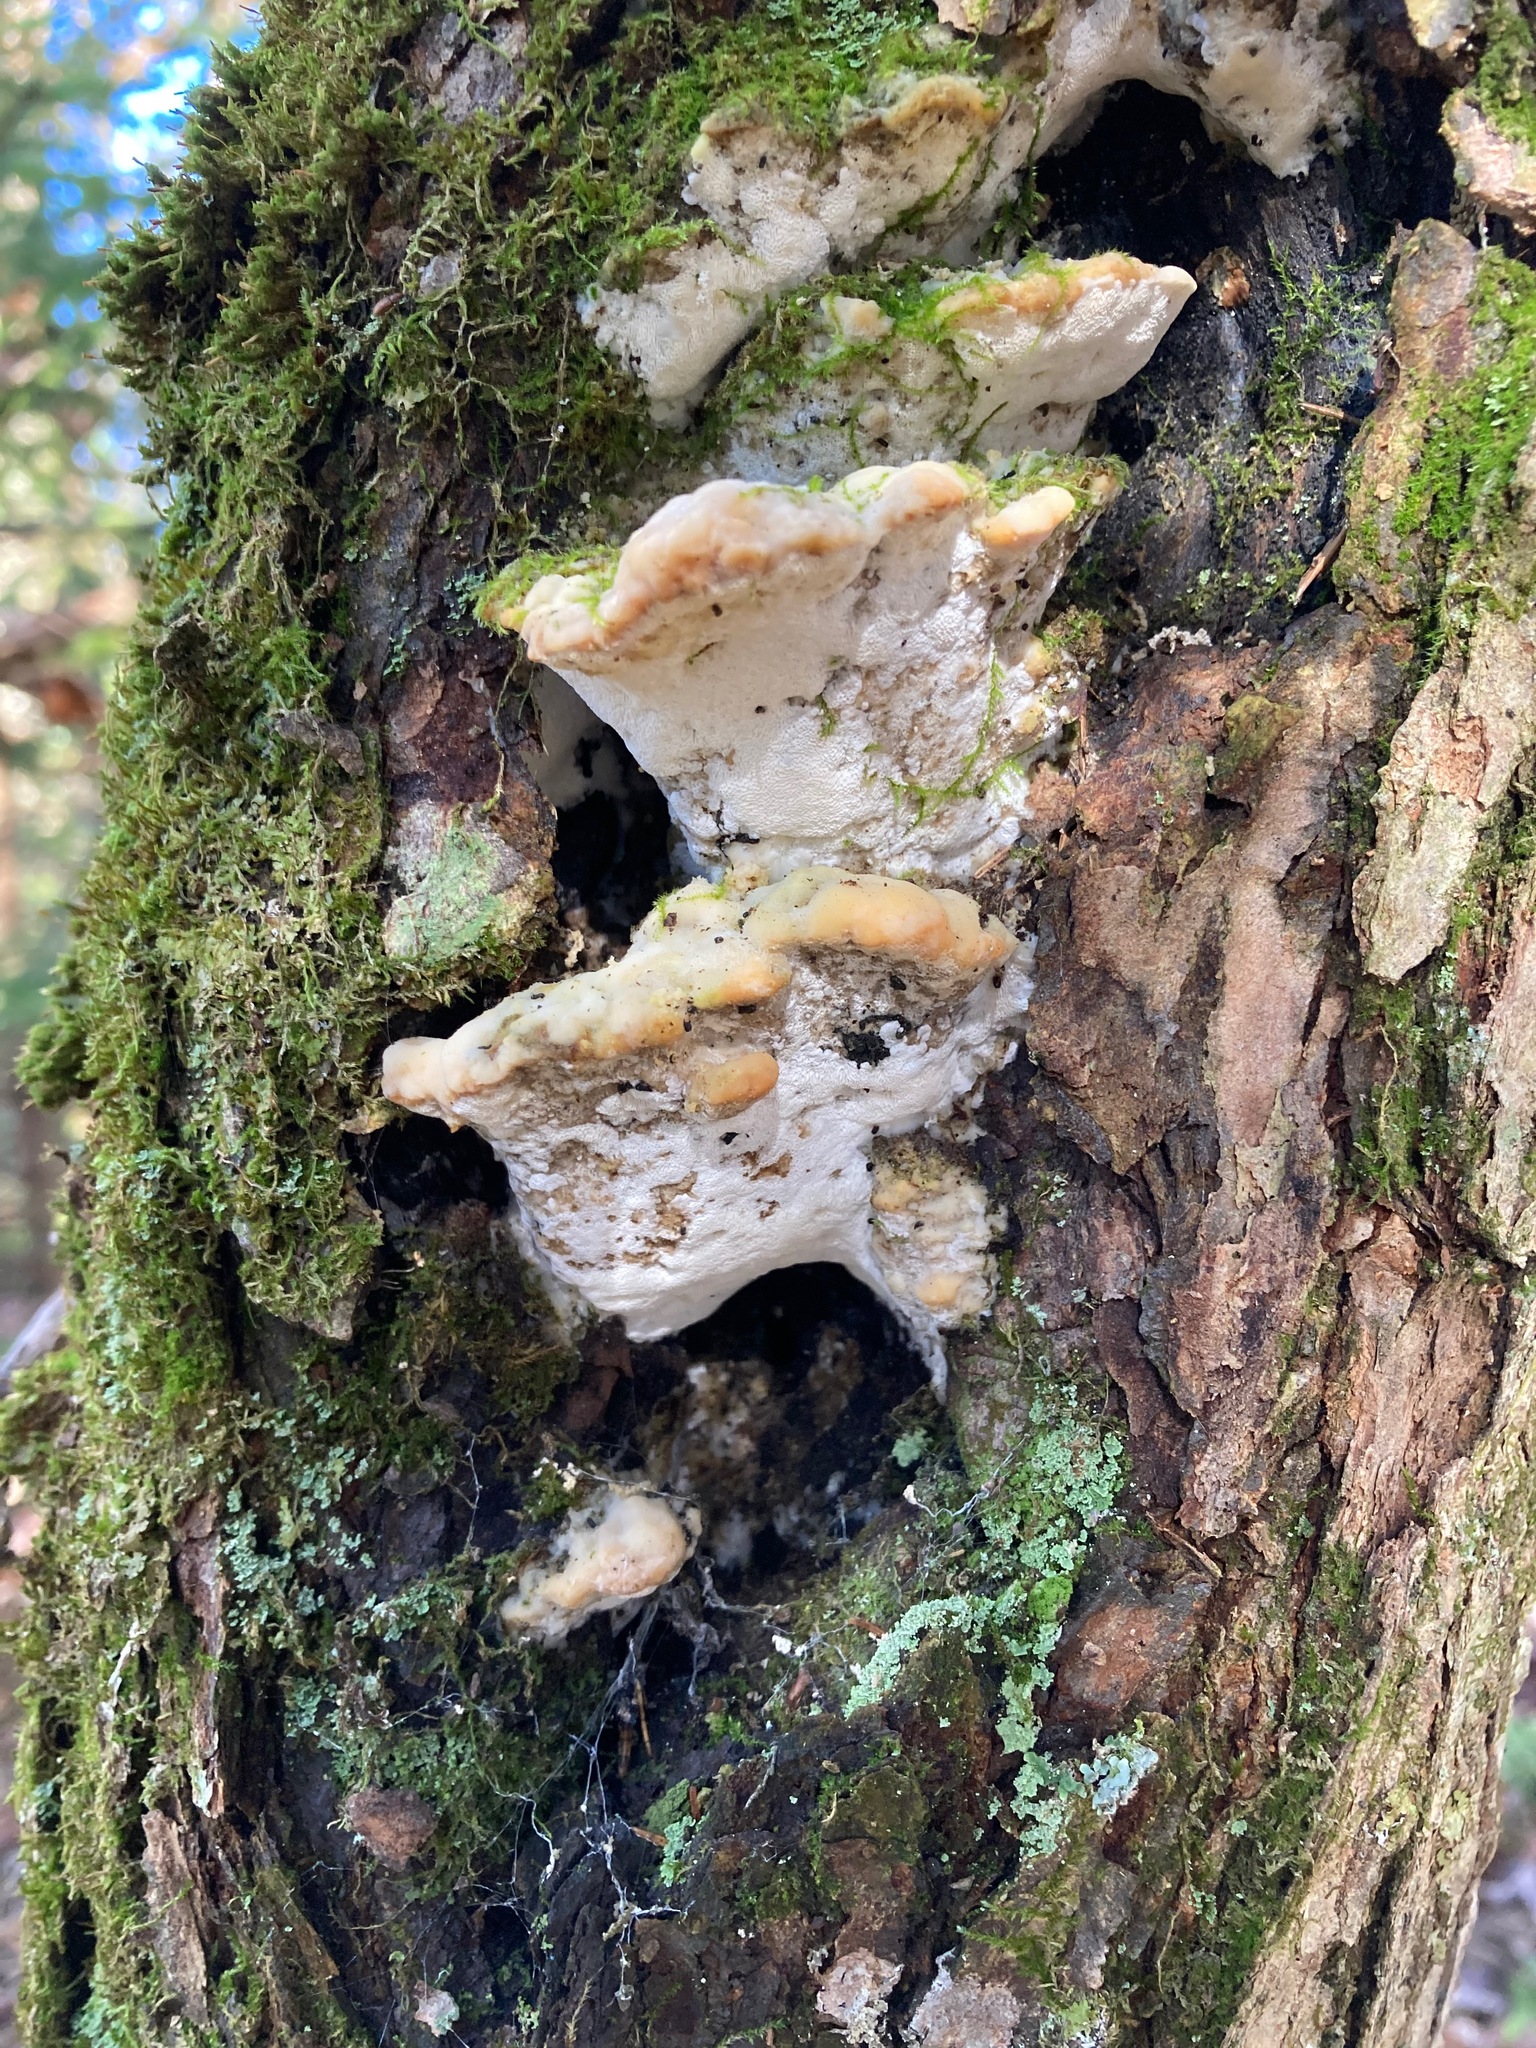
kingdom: Fungi
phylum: Basidiomycota
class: Agaricomycetes
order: Hymenochaetales
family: Oxyporaceae
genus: Oxyporus
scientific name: Oxyporus populinus
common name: Poplar bracket
